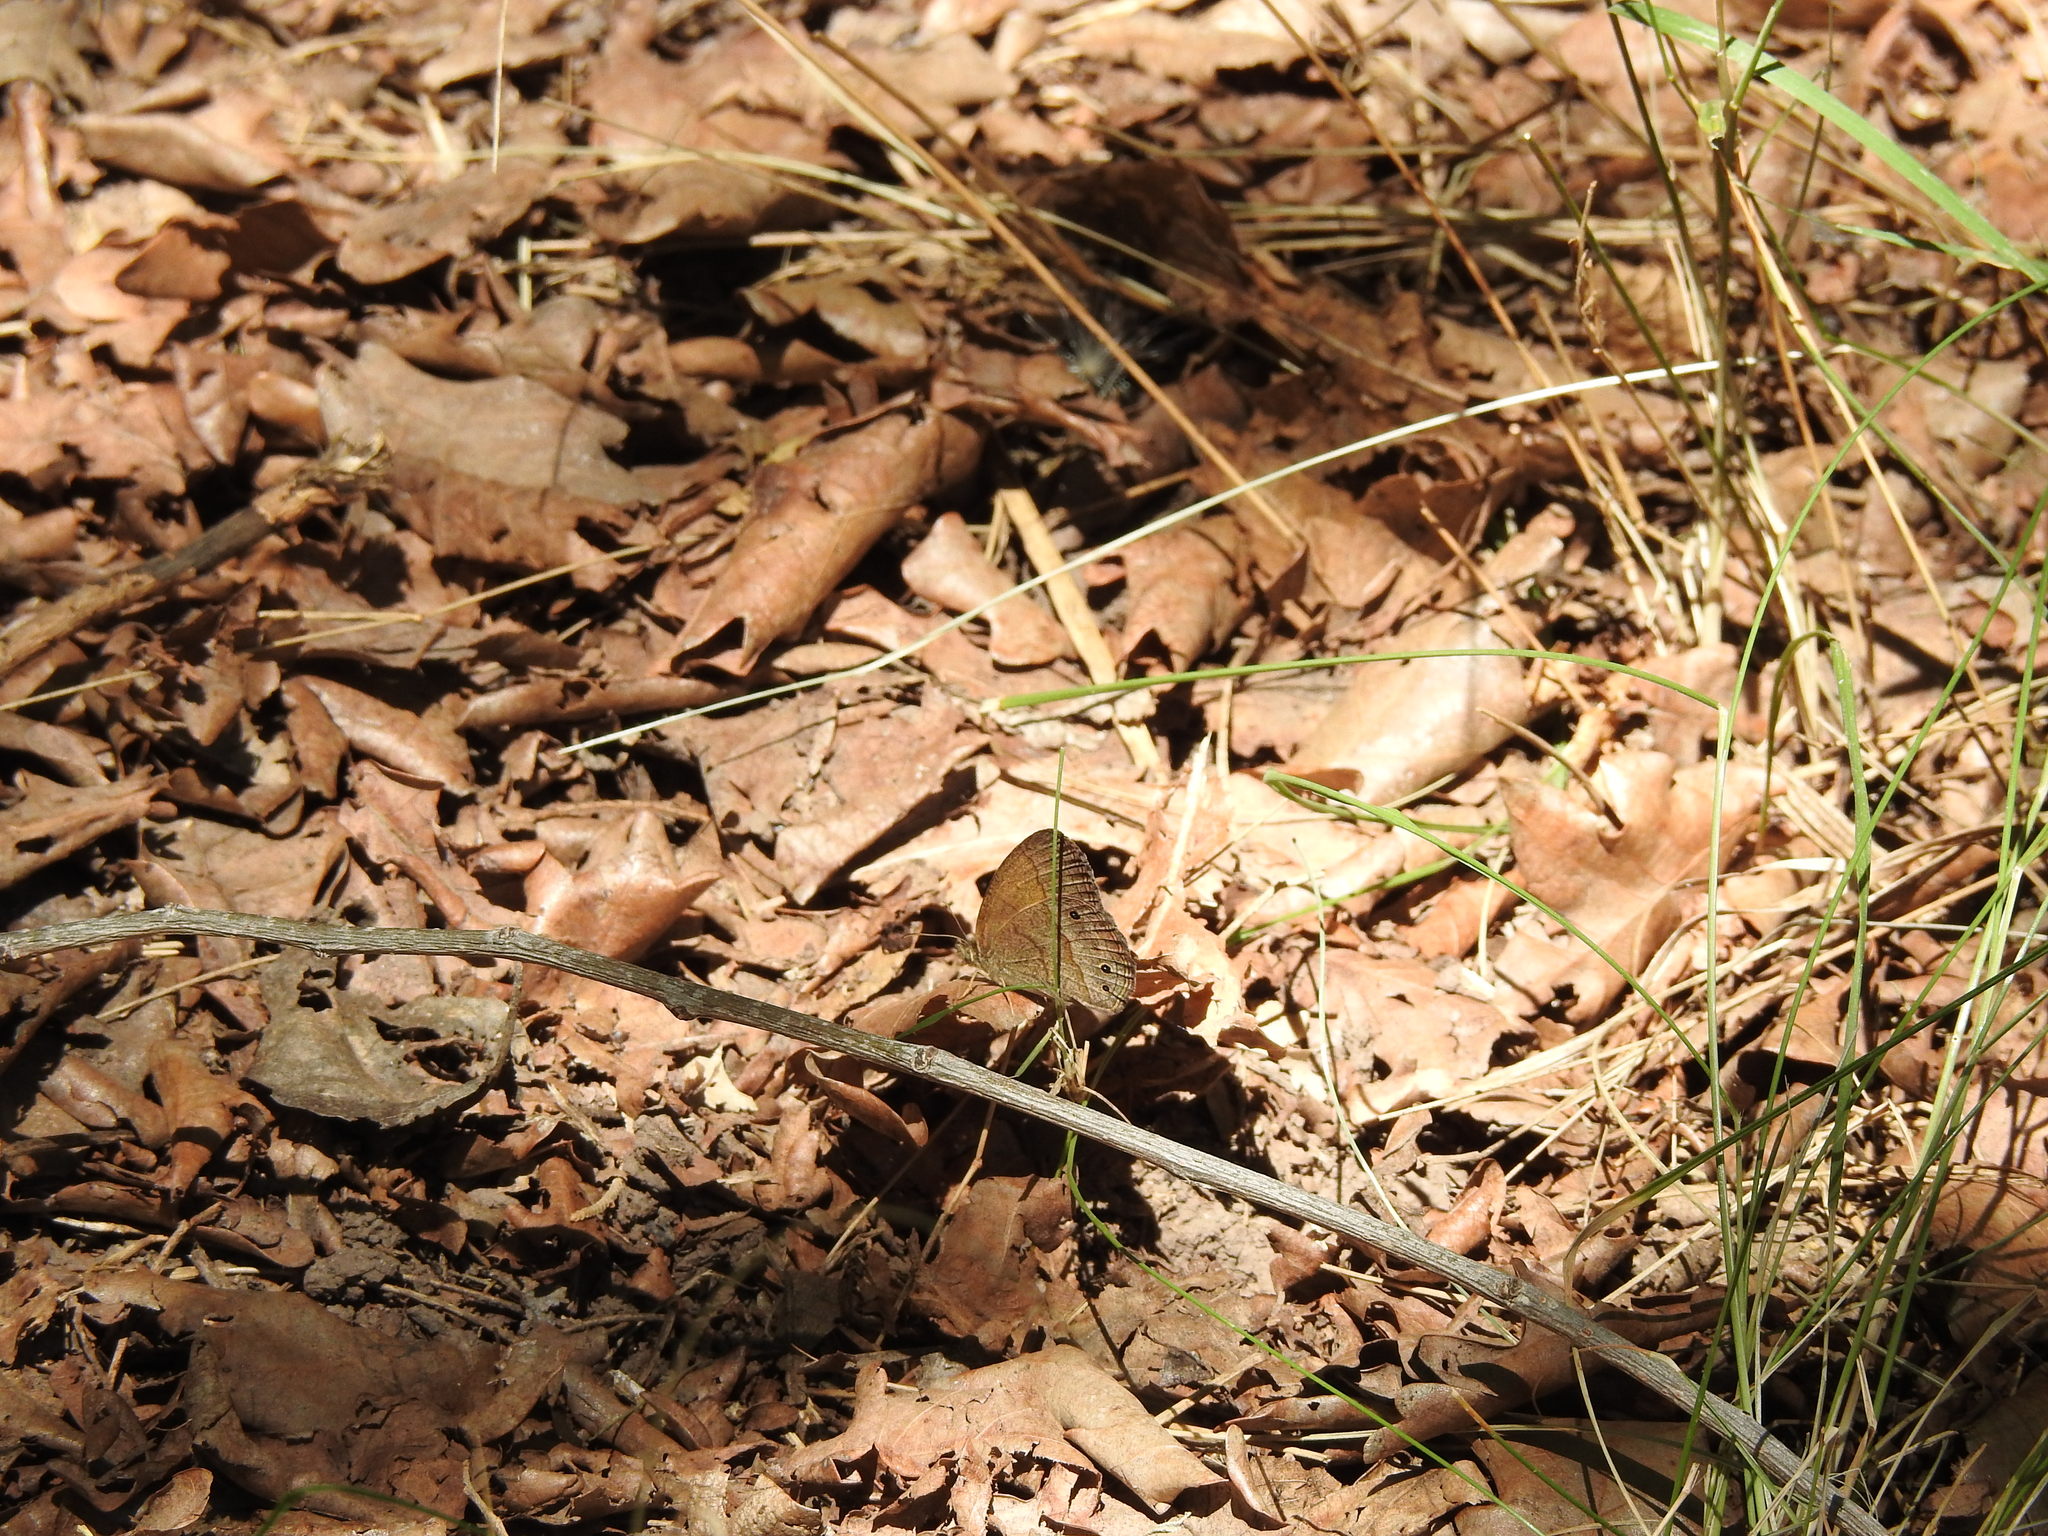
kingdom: Animalia
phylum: Arthropoda
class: Insecta
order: Lepidoptera
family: Nymphalidae
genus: Yphthimoides
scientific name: Yphthimoides celmis
